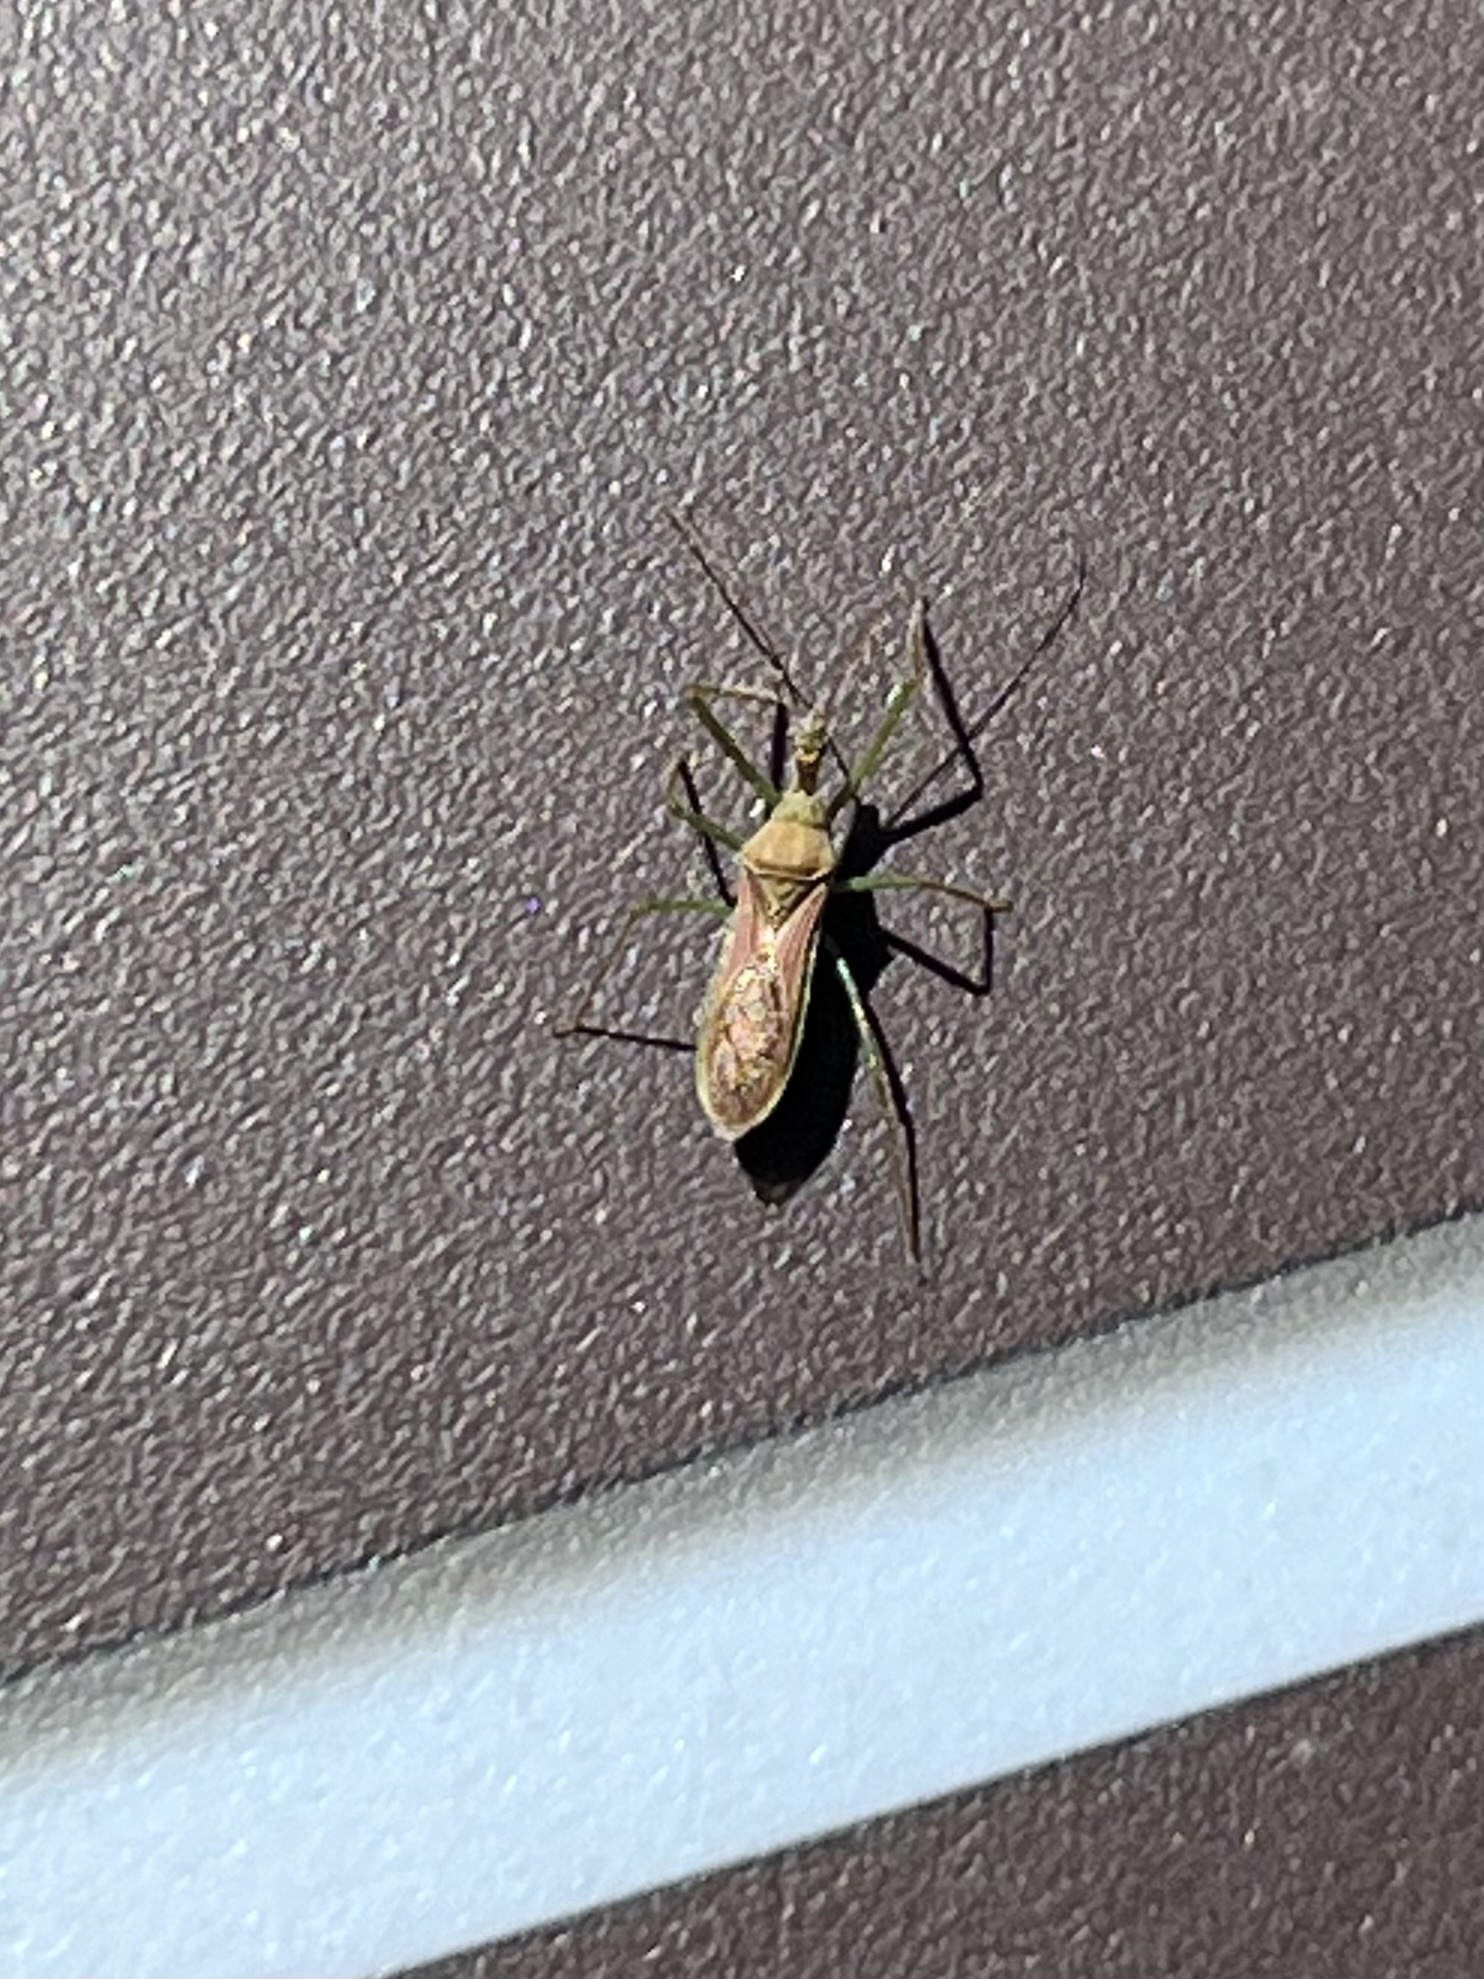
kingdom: Animalia
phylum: Arthropoda
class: Insecta
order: Hemiptera
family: Reduviidae
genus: Zelus
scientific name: Zelus renardii
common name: Assassin bug
